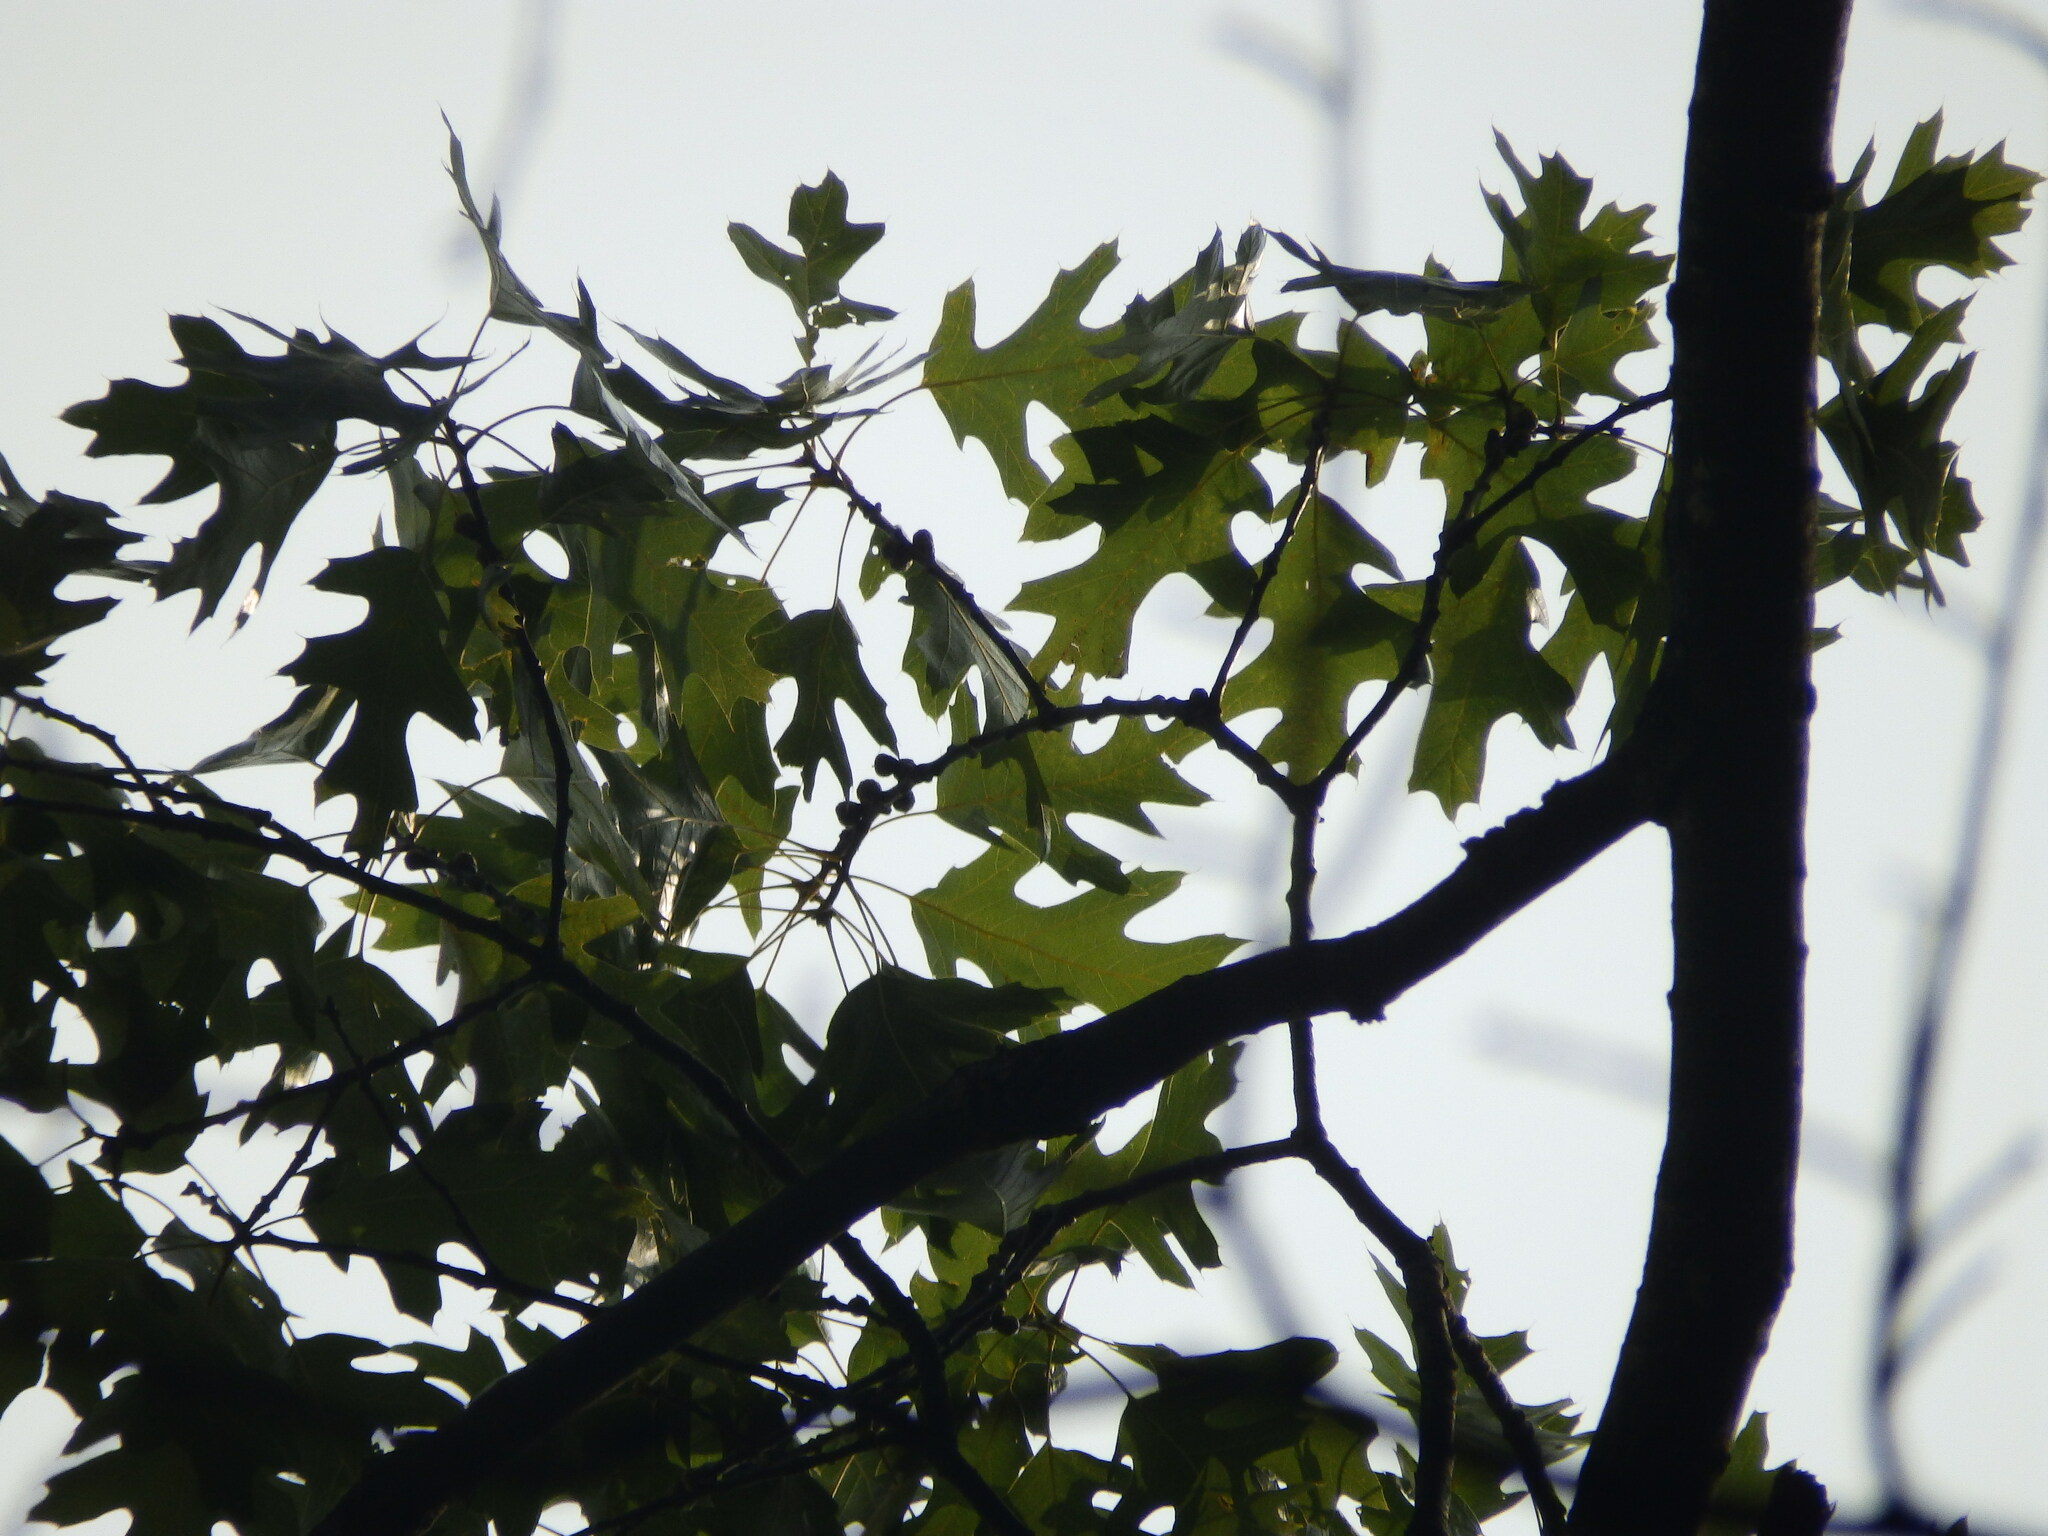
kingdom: Plantae
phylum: Tracheophyta
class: Magnoliopsida
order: Fagales
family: Fagaceae
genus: Quercus
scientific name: Quercus velutina
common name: Black oak
